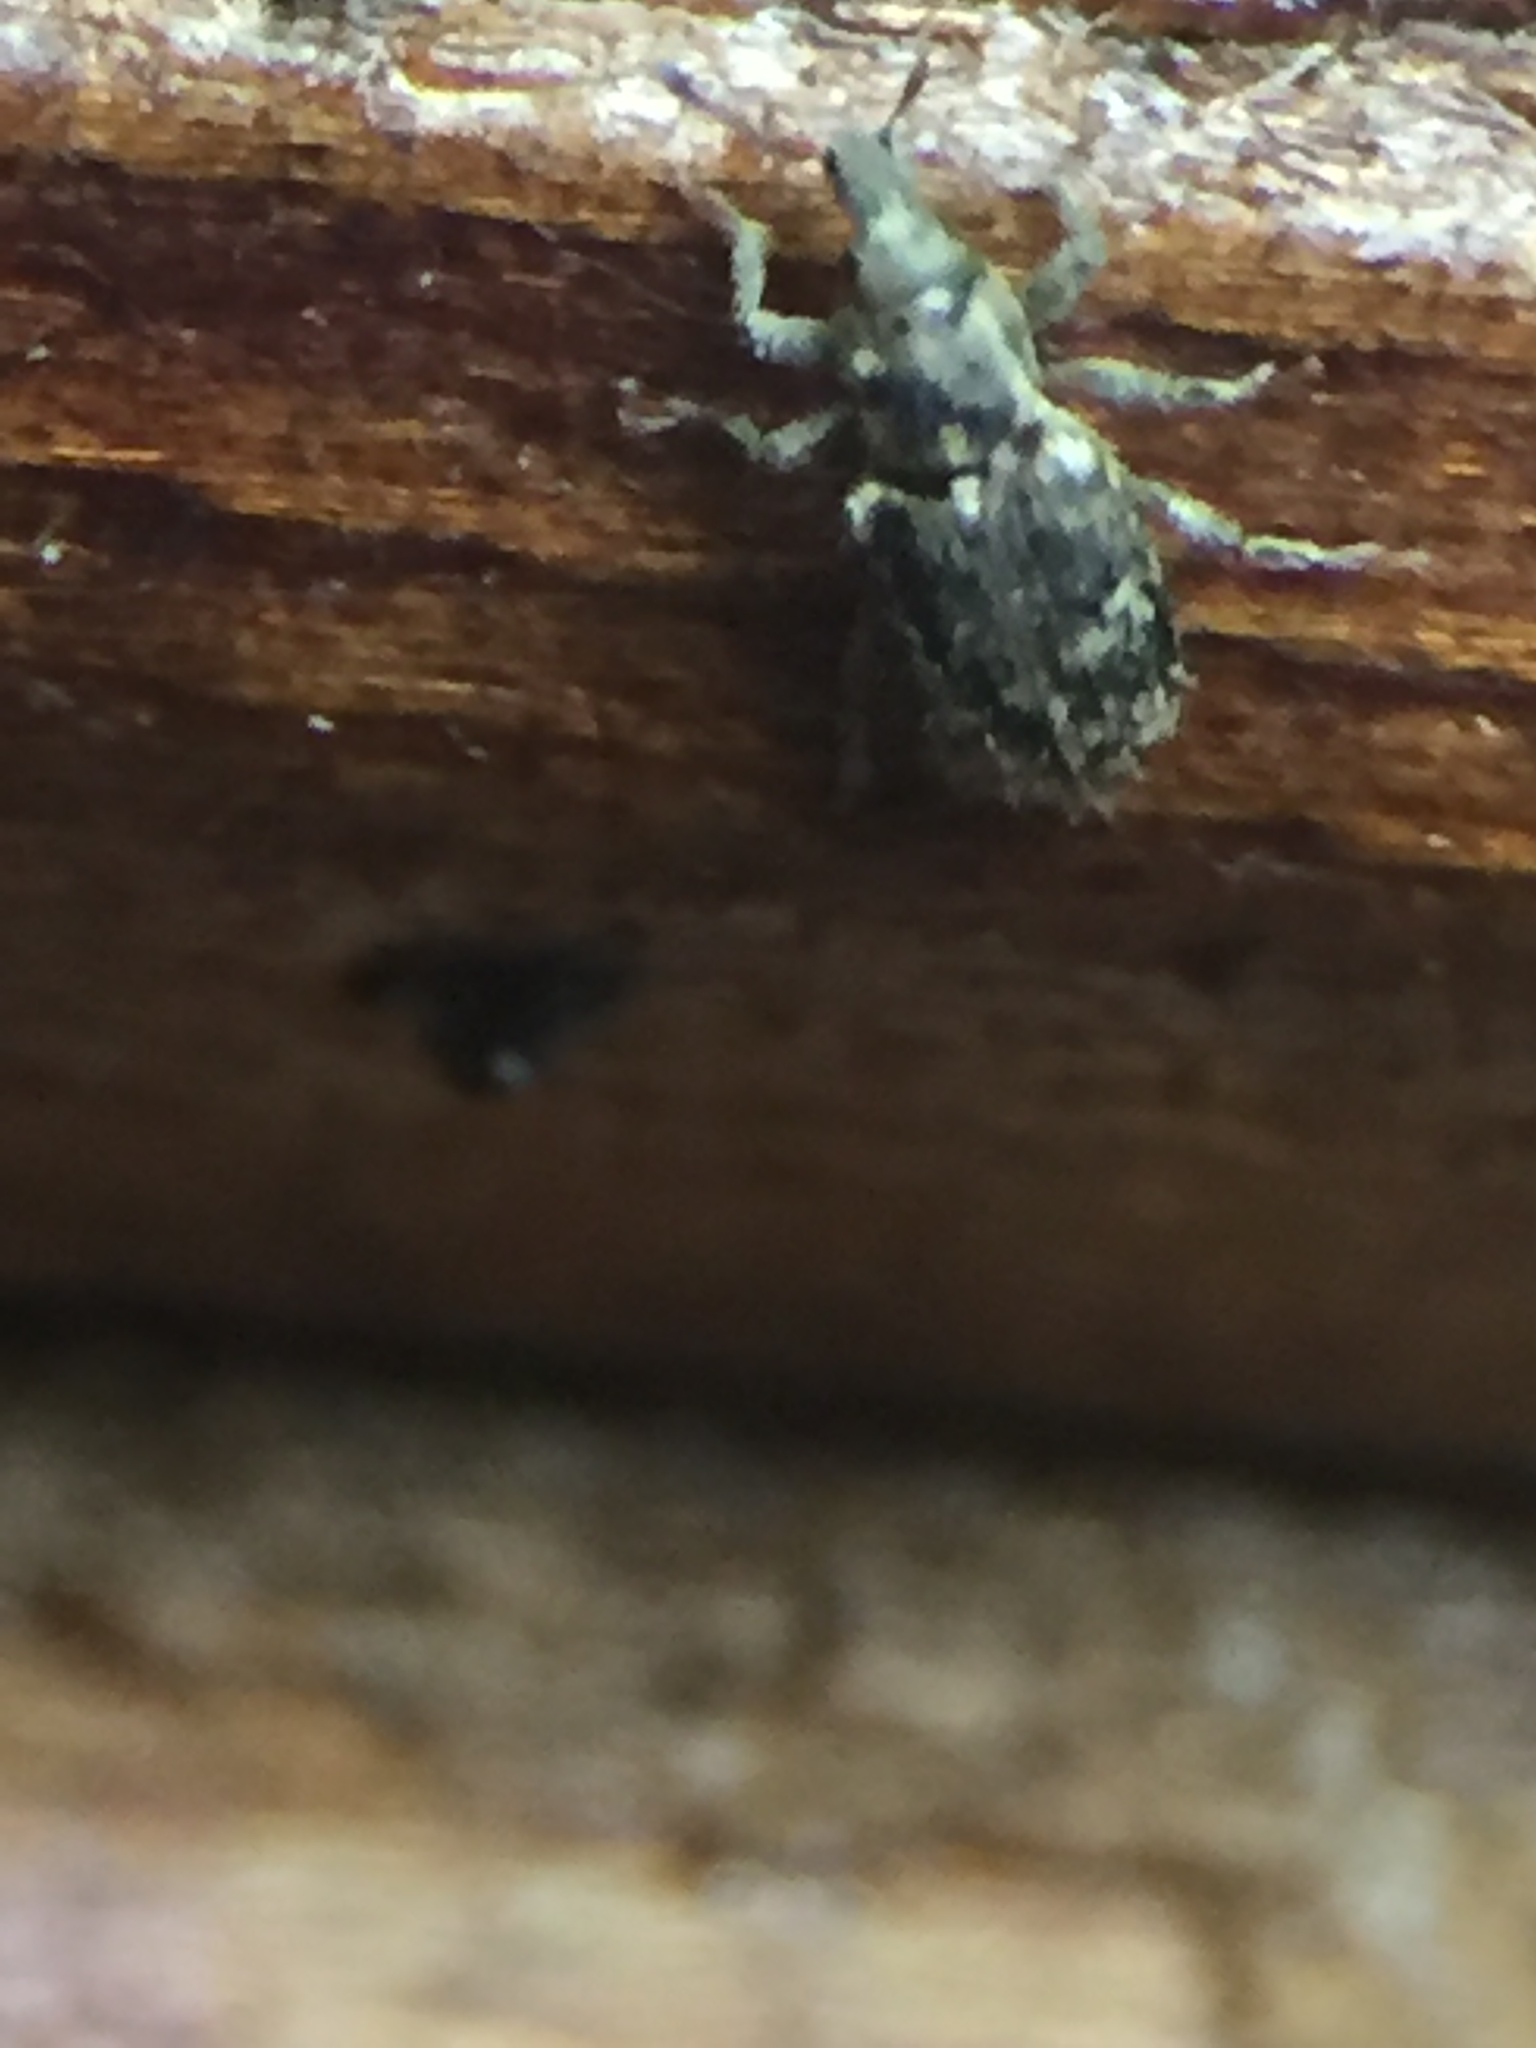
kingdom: Animalia
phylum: Arthropoda
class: Insecta
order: Coleoptera
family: Curculionidae
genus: Listronotus
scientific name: Listronotus bonariensis
